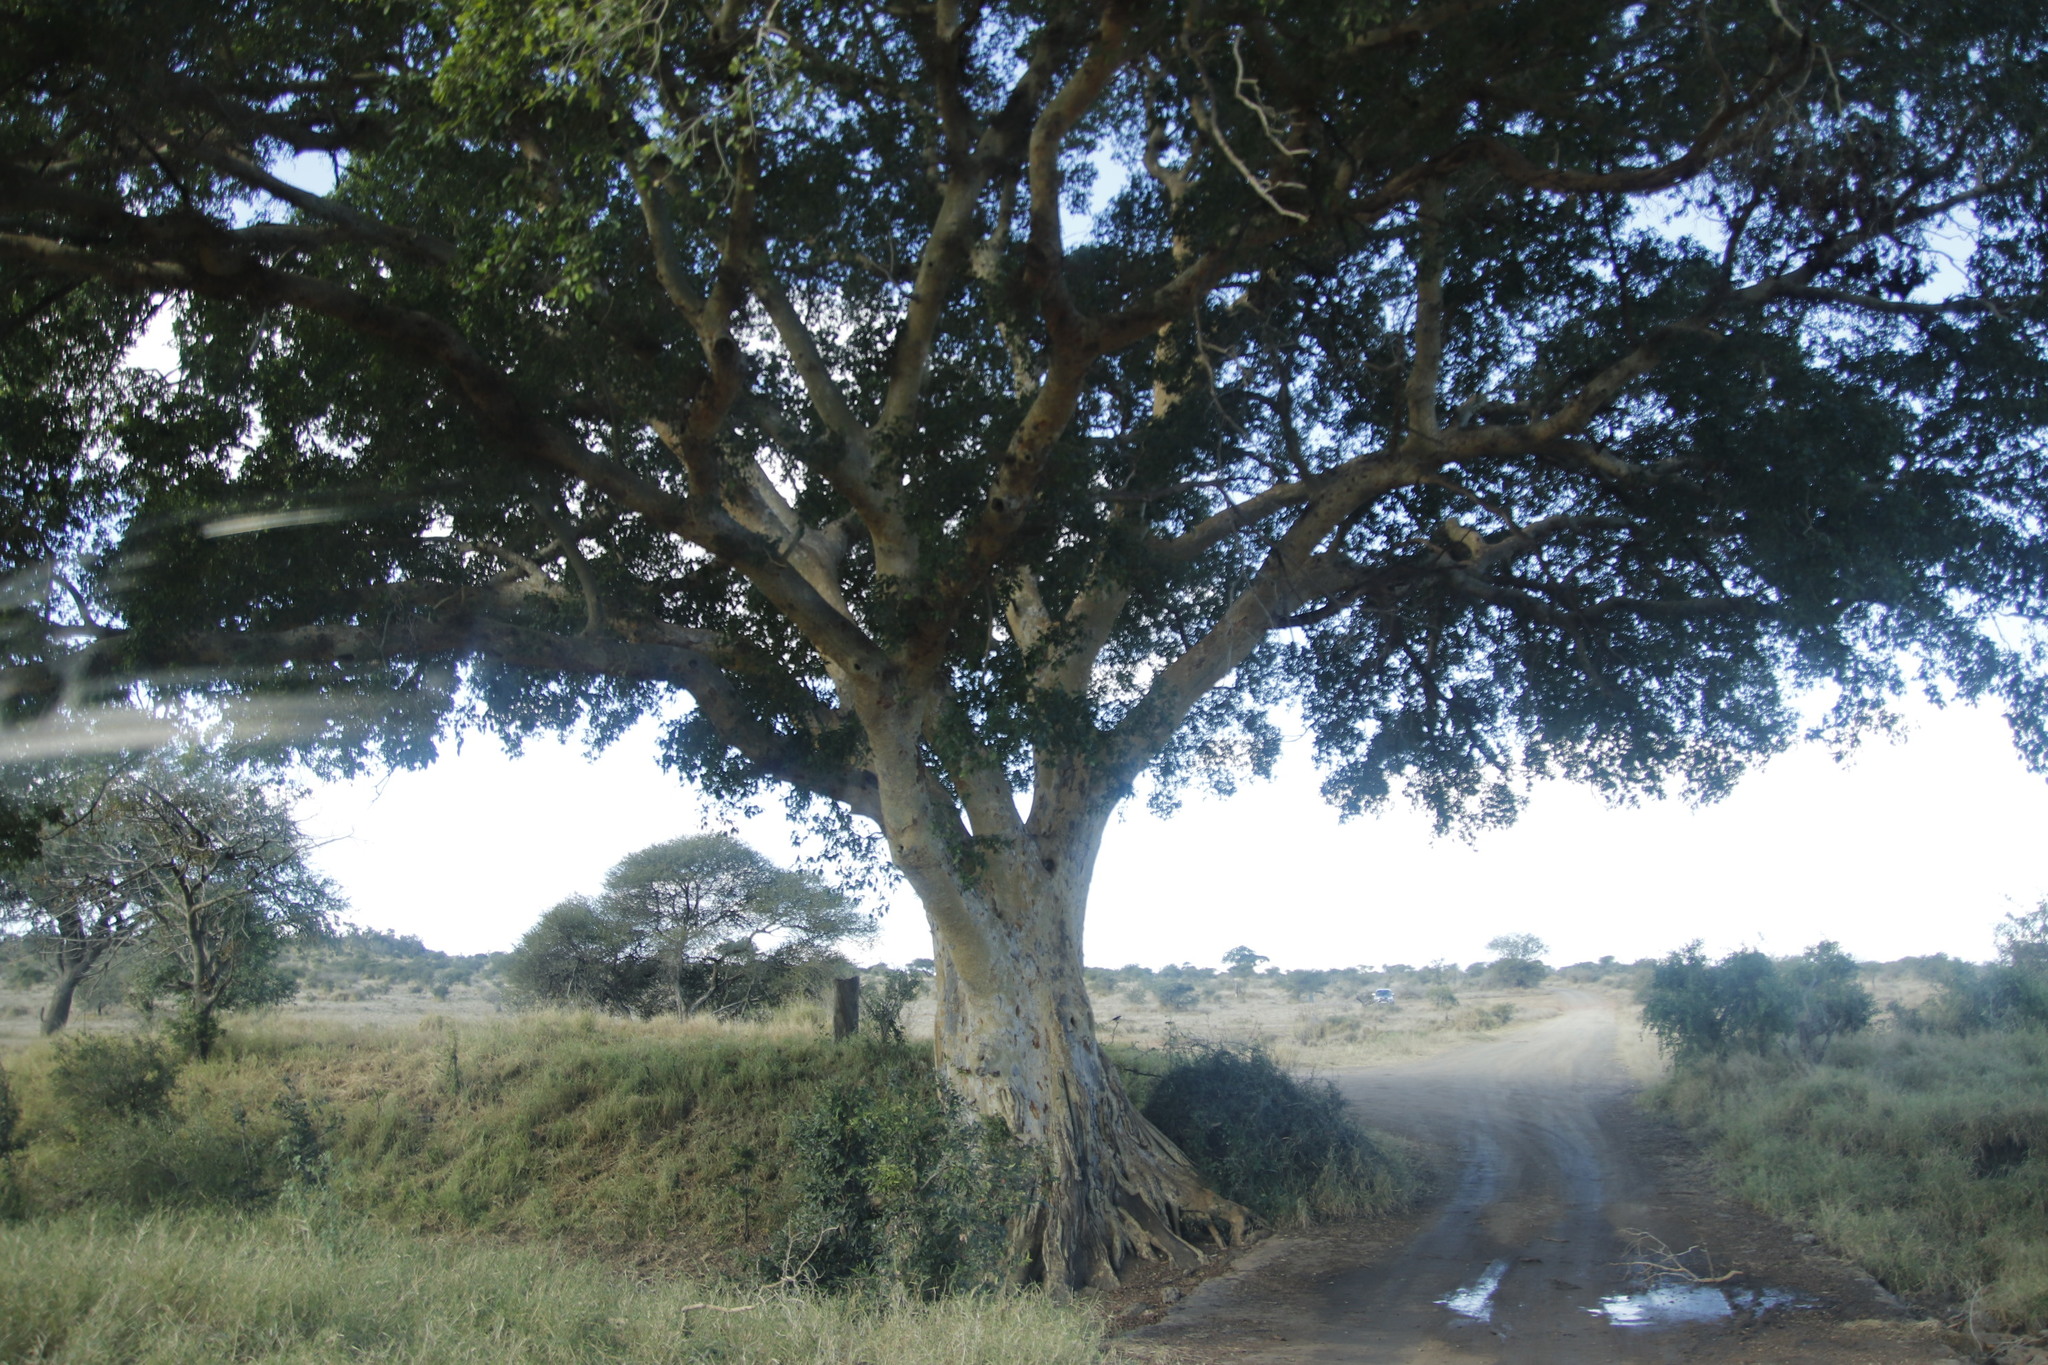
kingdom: Plantae
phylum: Tracheophyta
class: Magnoliopsida
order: Rosales
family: Moraceae
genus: Ficus
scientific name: Ficus sycomorus
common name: Sycomore
